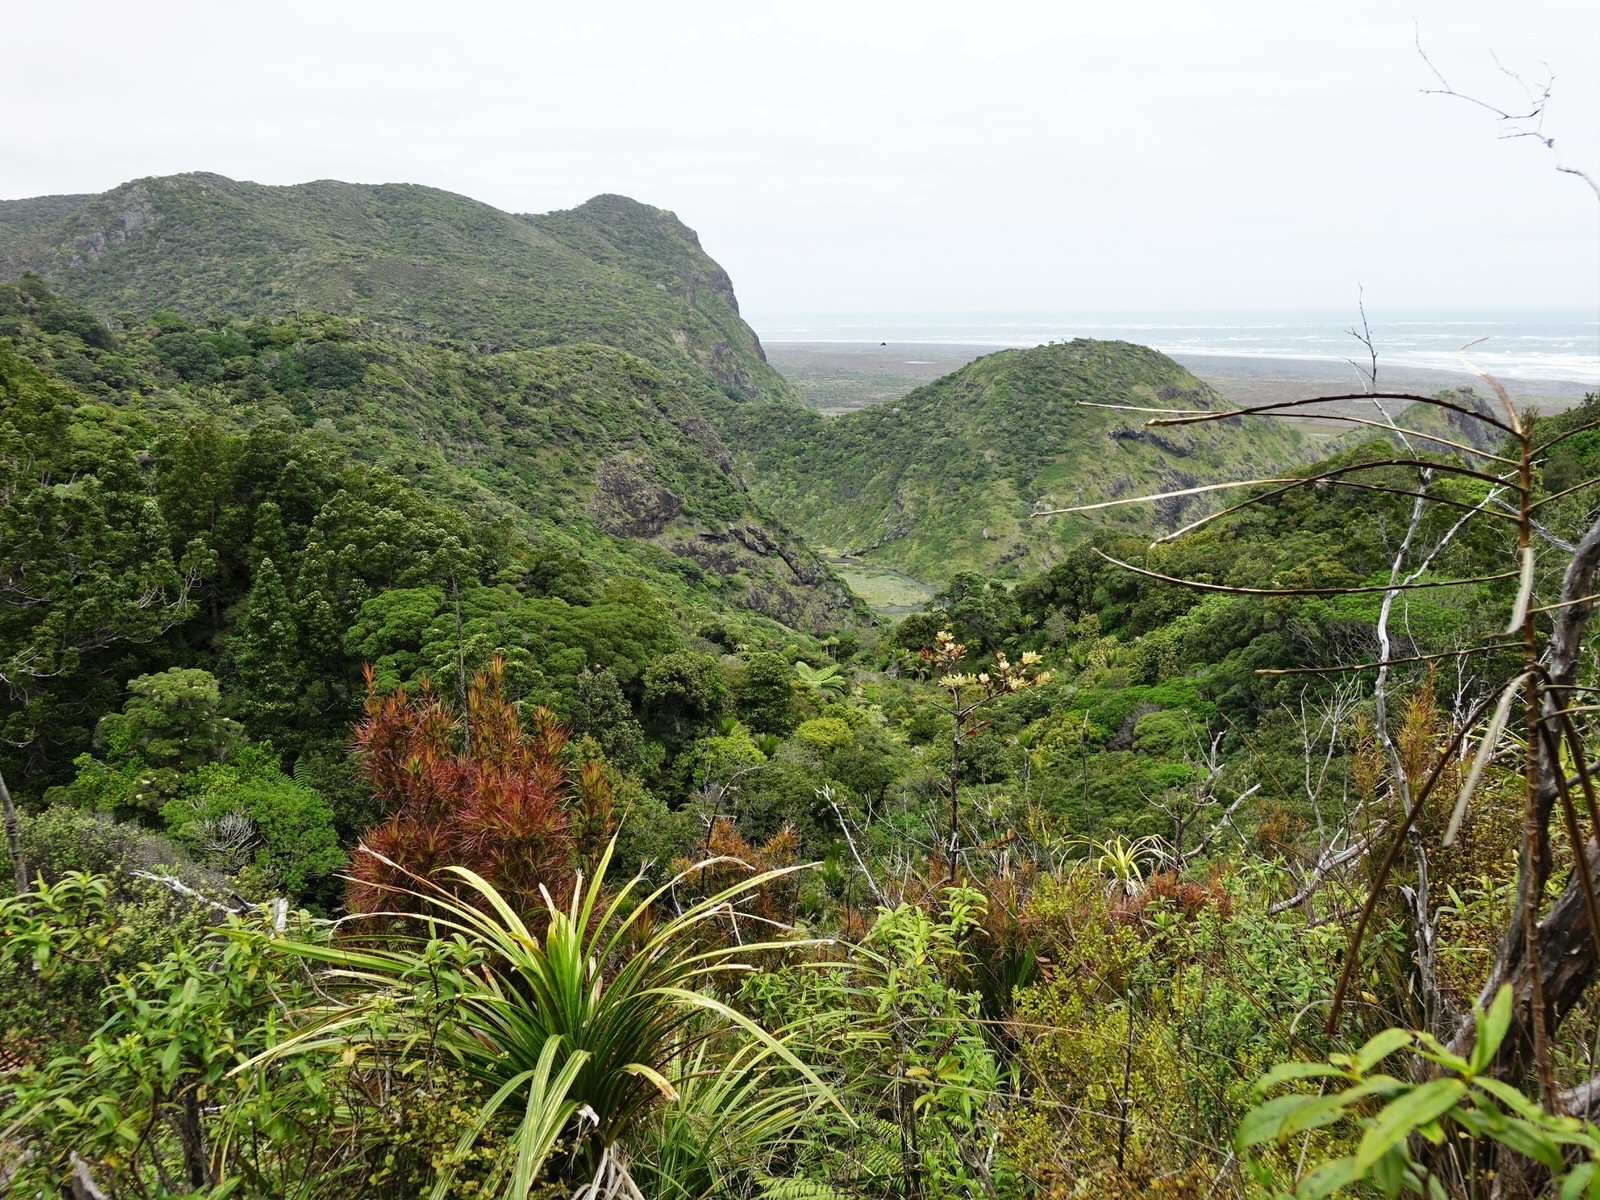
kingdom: Plantae
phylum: Tracheophyta
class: Magnoliopsida
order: Ericales
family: Ericaceae
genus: Dracophyllum
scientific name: Dracophyllum sinclairii
